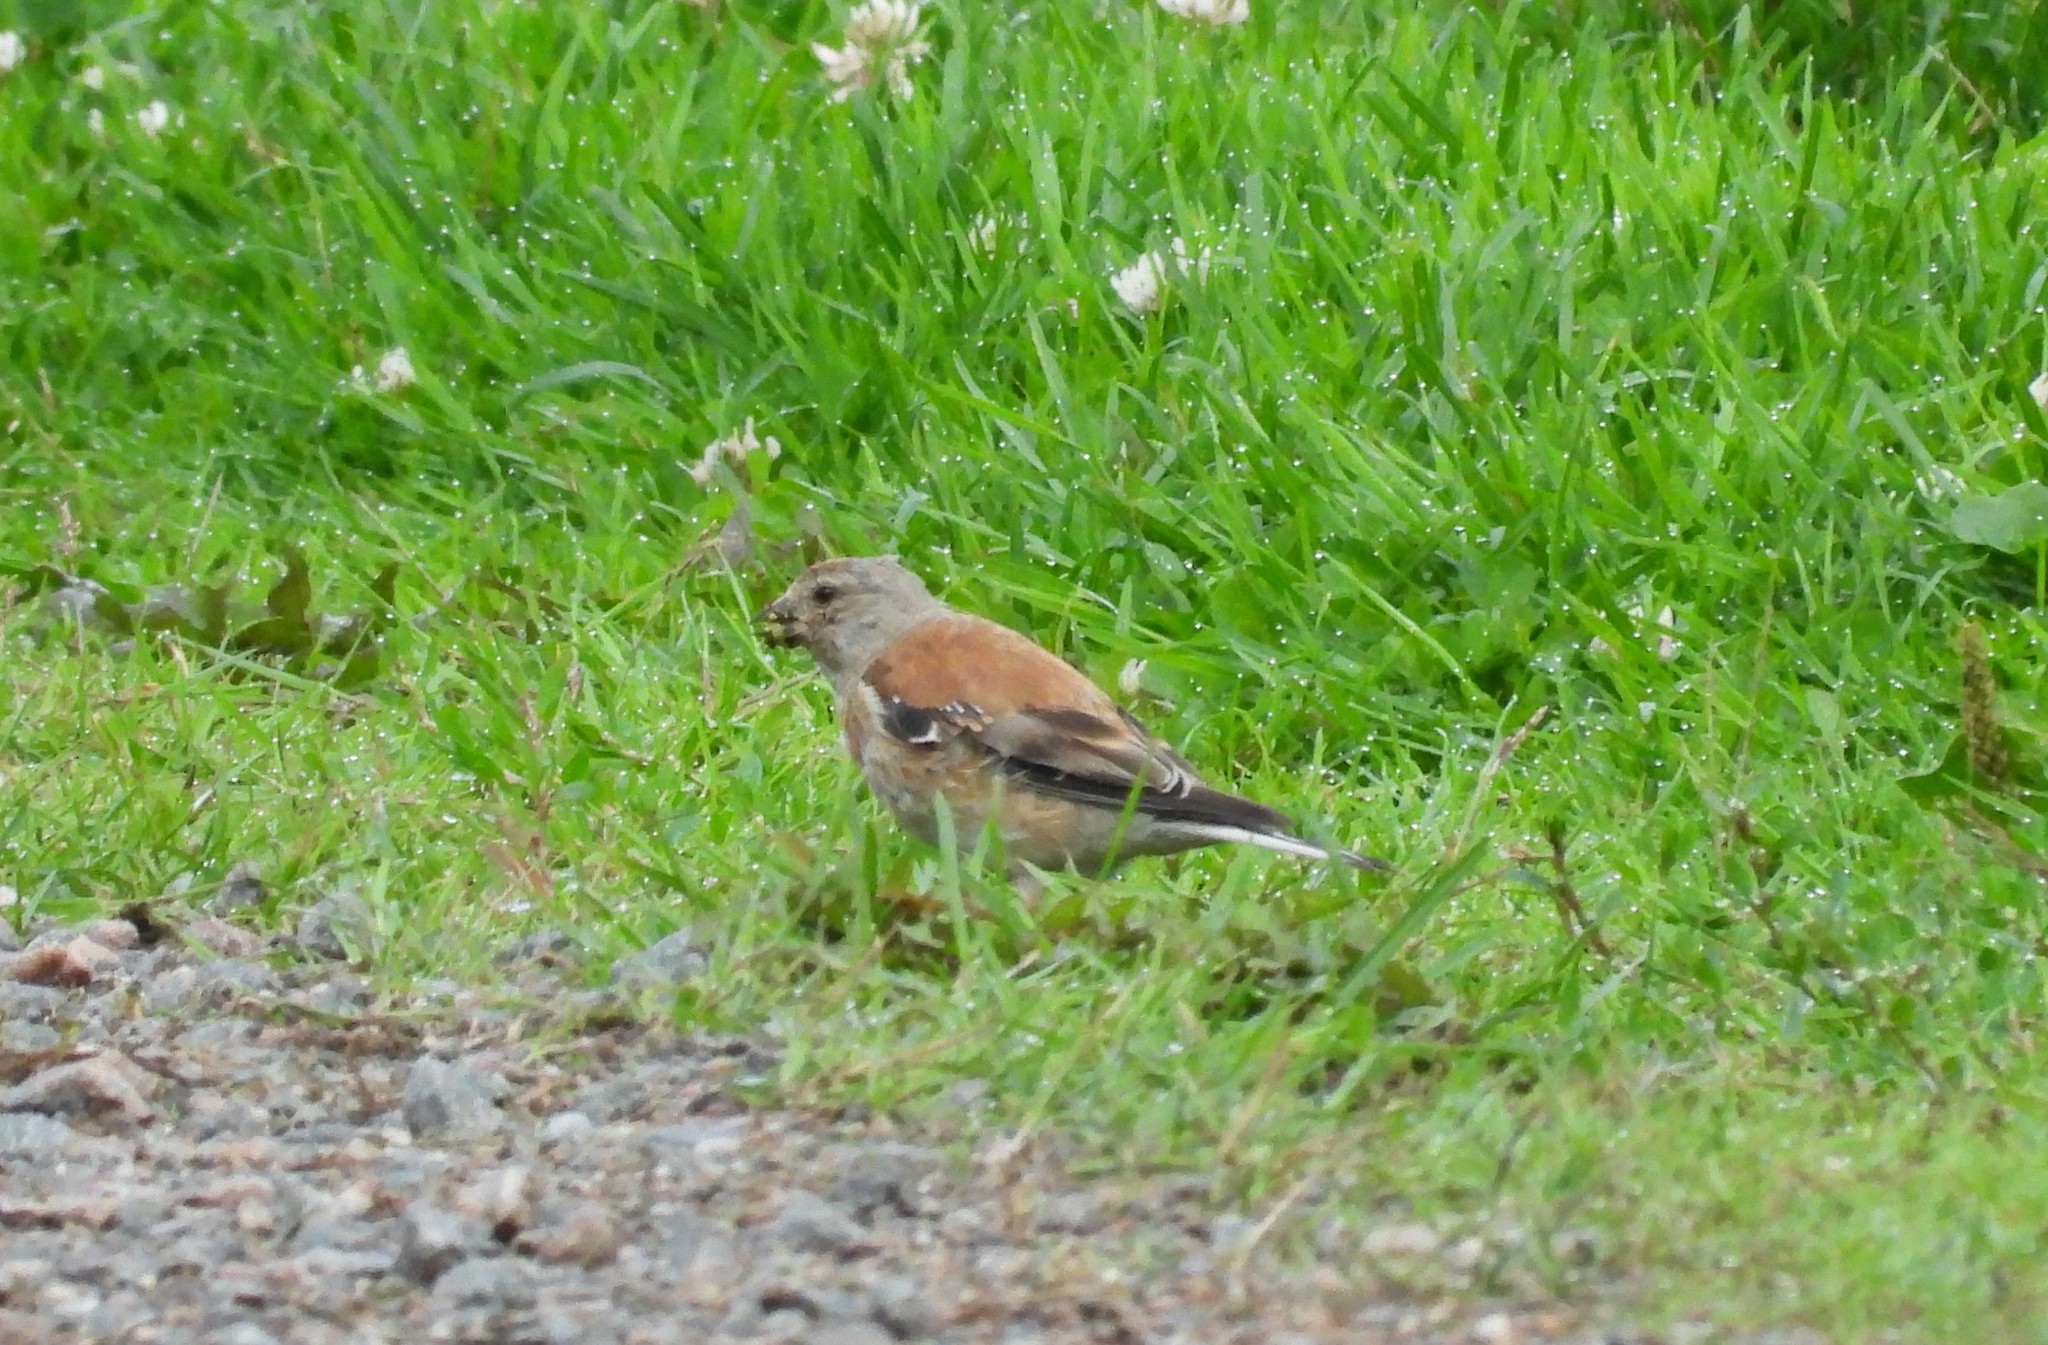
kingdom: Animalia
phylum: Chordata
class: Aves
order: Passeriformes
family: Fringillidae
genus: Linaria
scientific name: Linaria cannabina
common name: Common linnet
